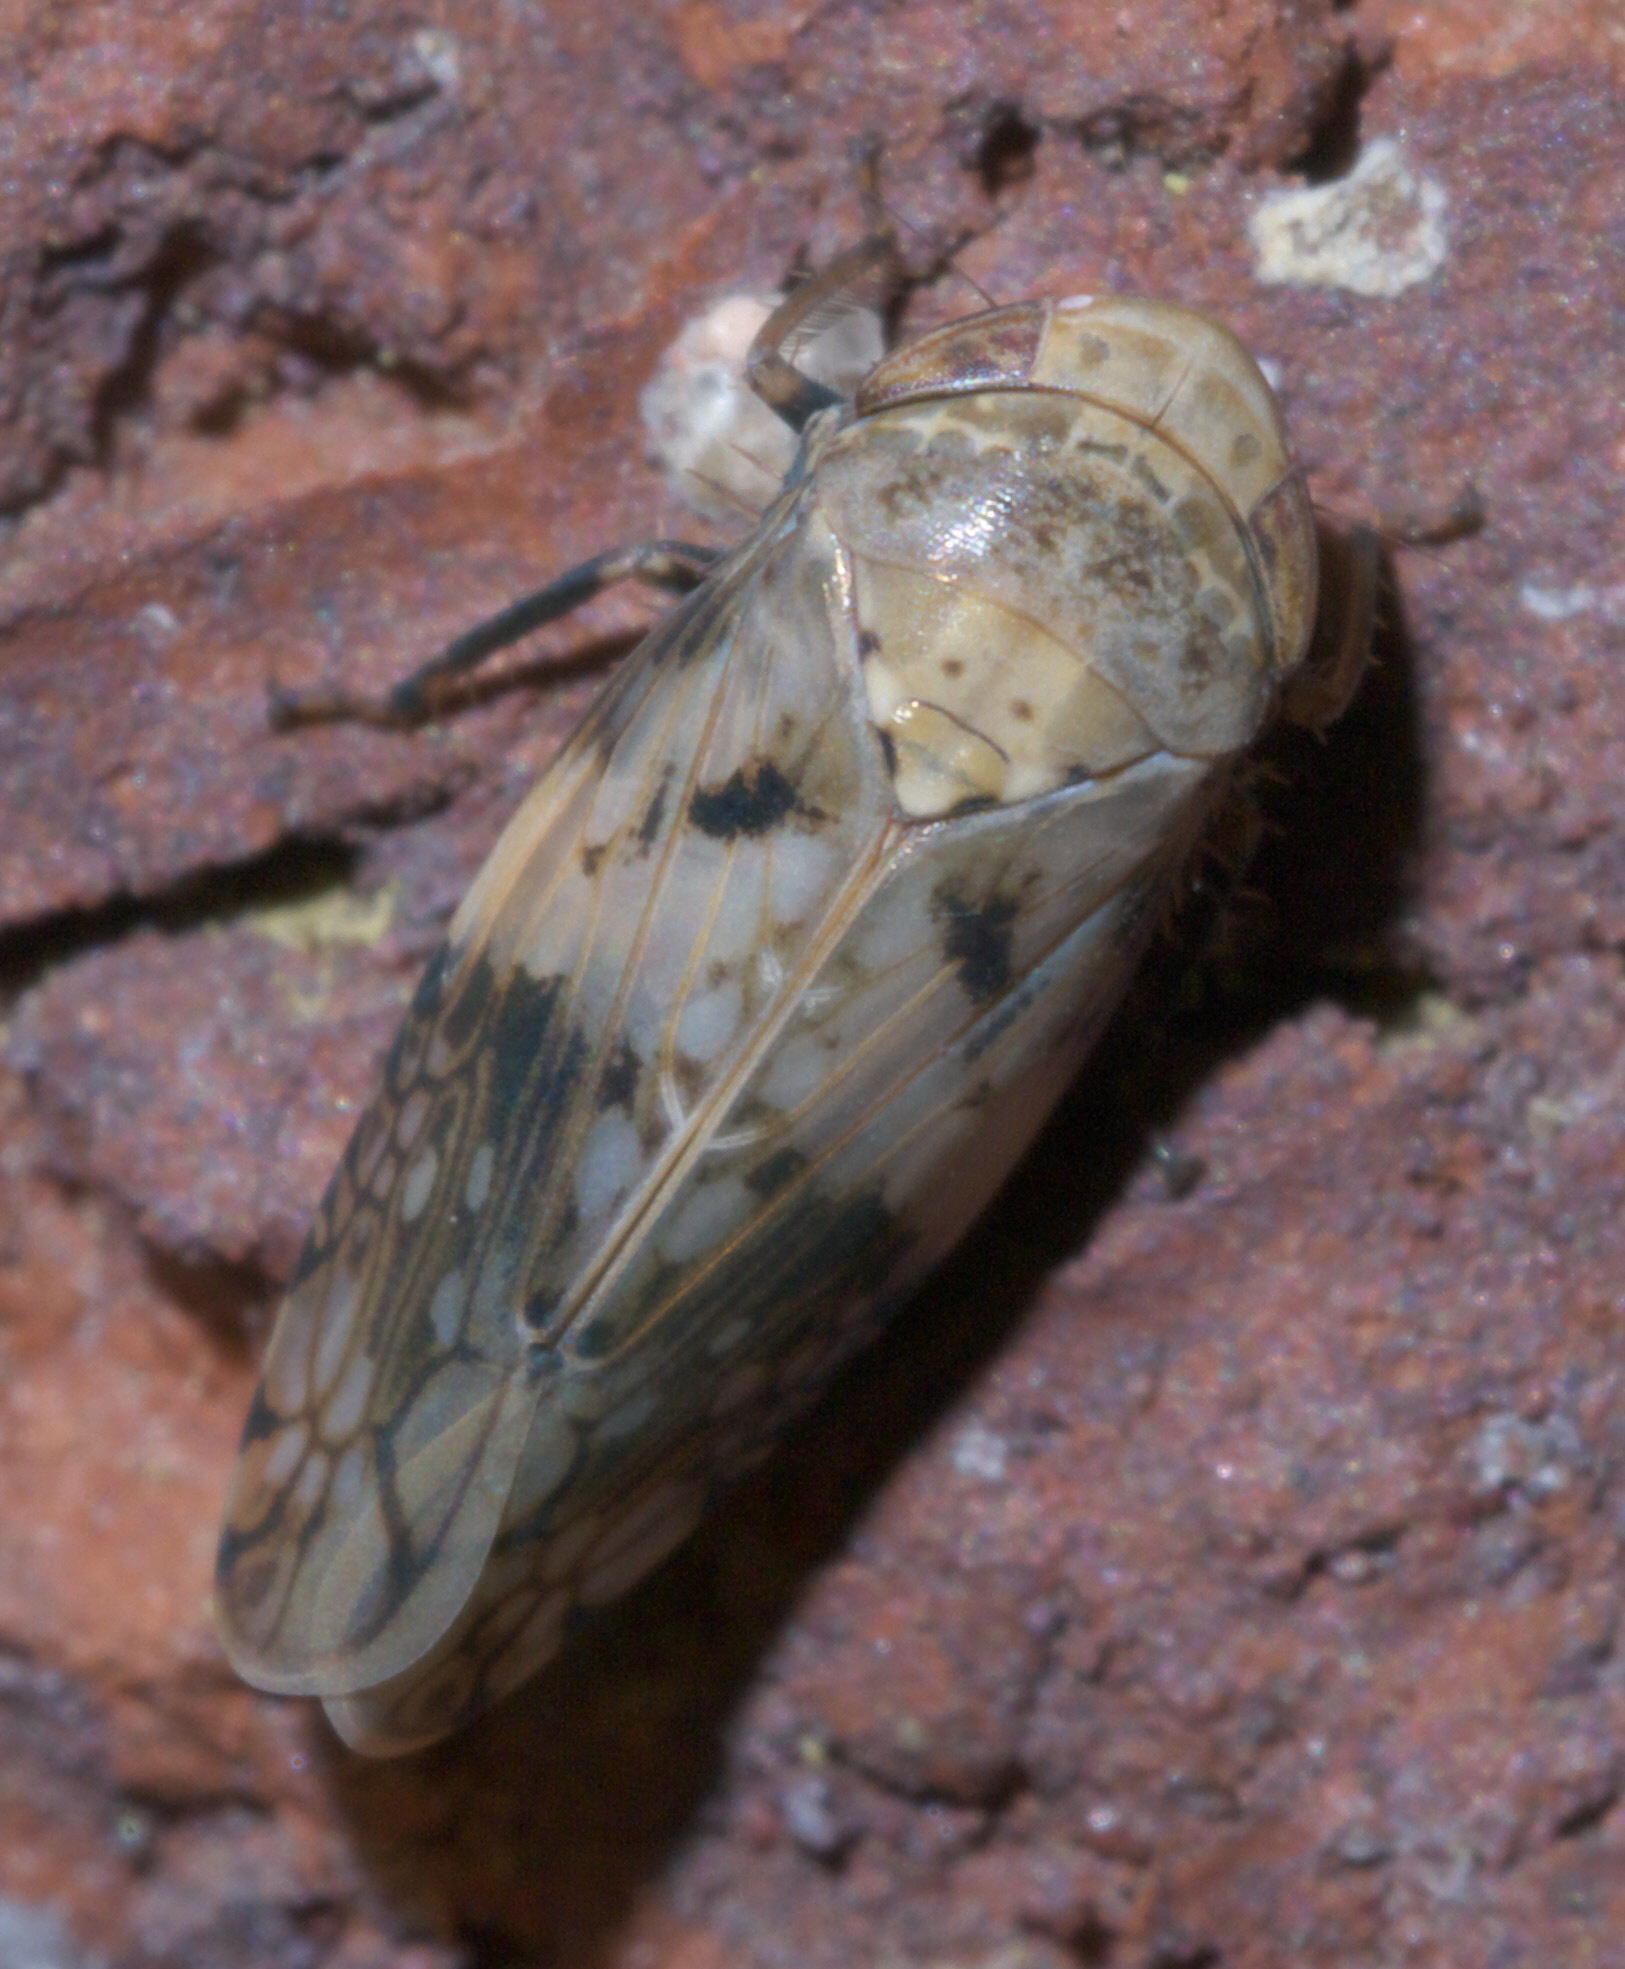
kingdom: Animalia
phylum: Arthropoda
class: Insecta
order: Hemiptera
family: Cicadellidae
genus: Menosoma
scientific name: Menosoma cinctum
